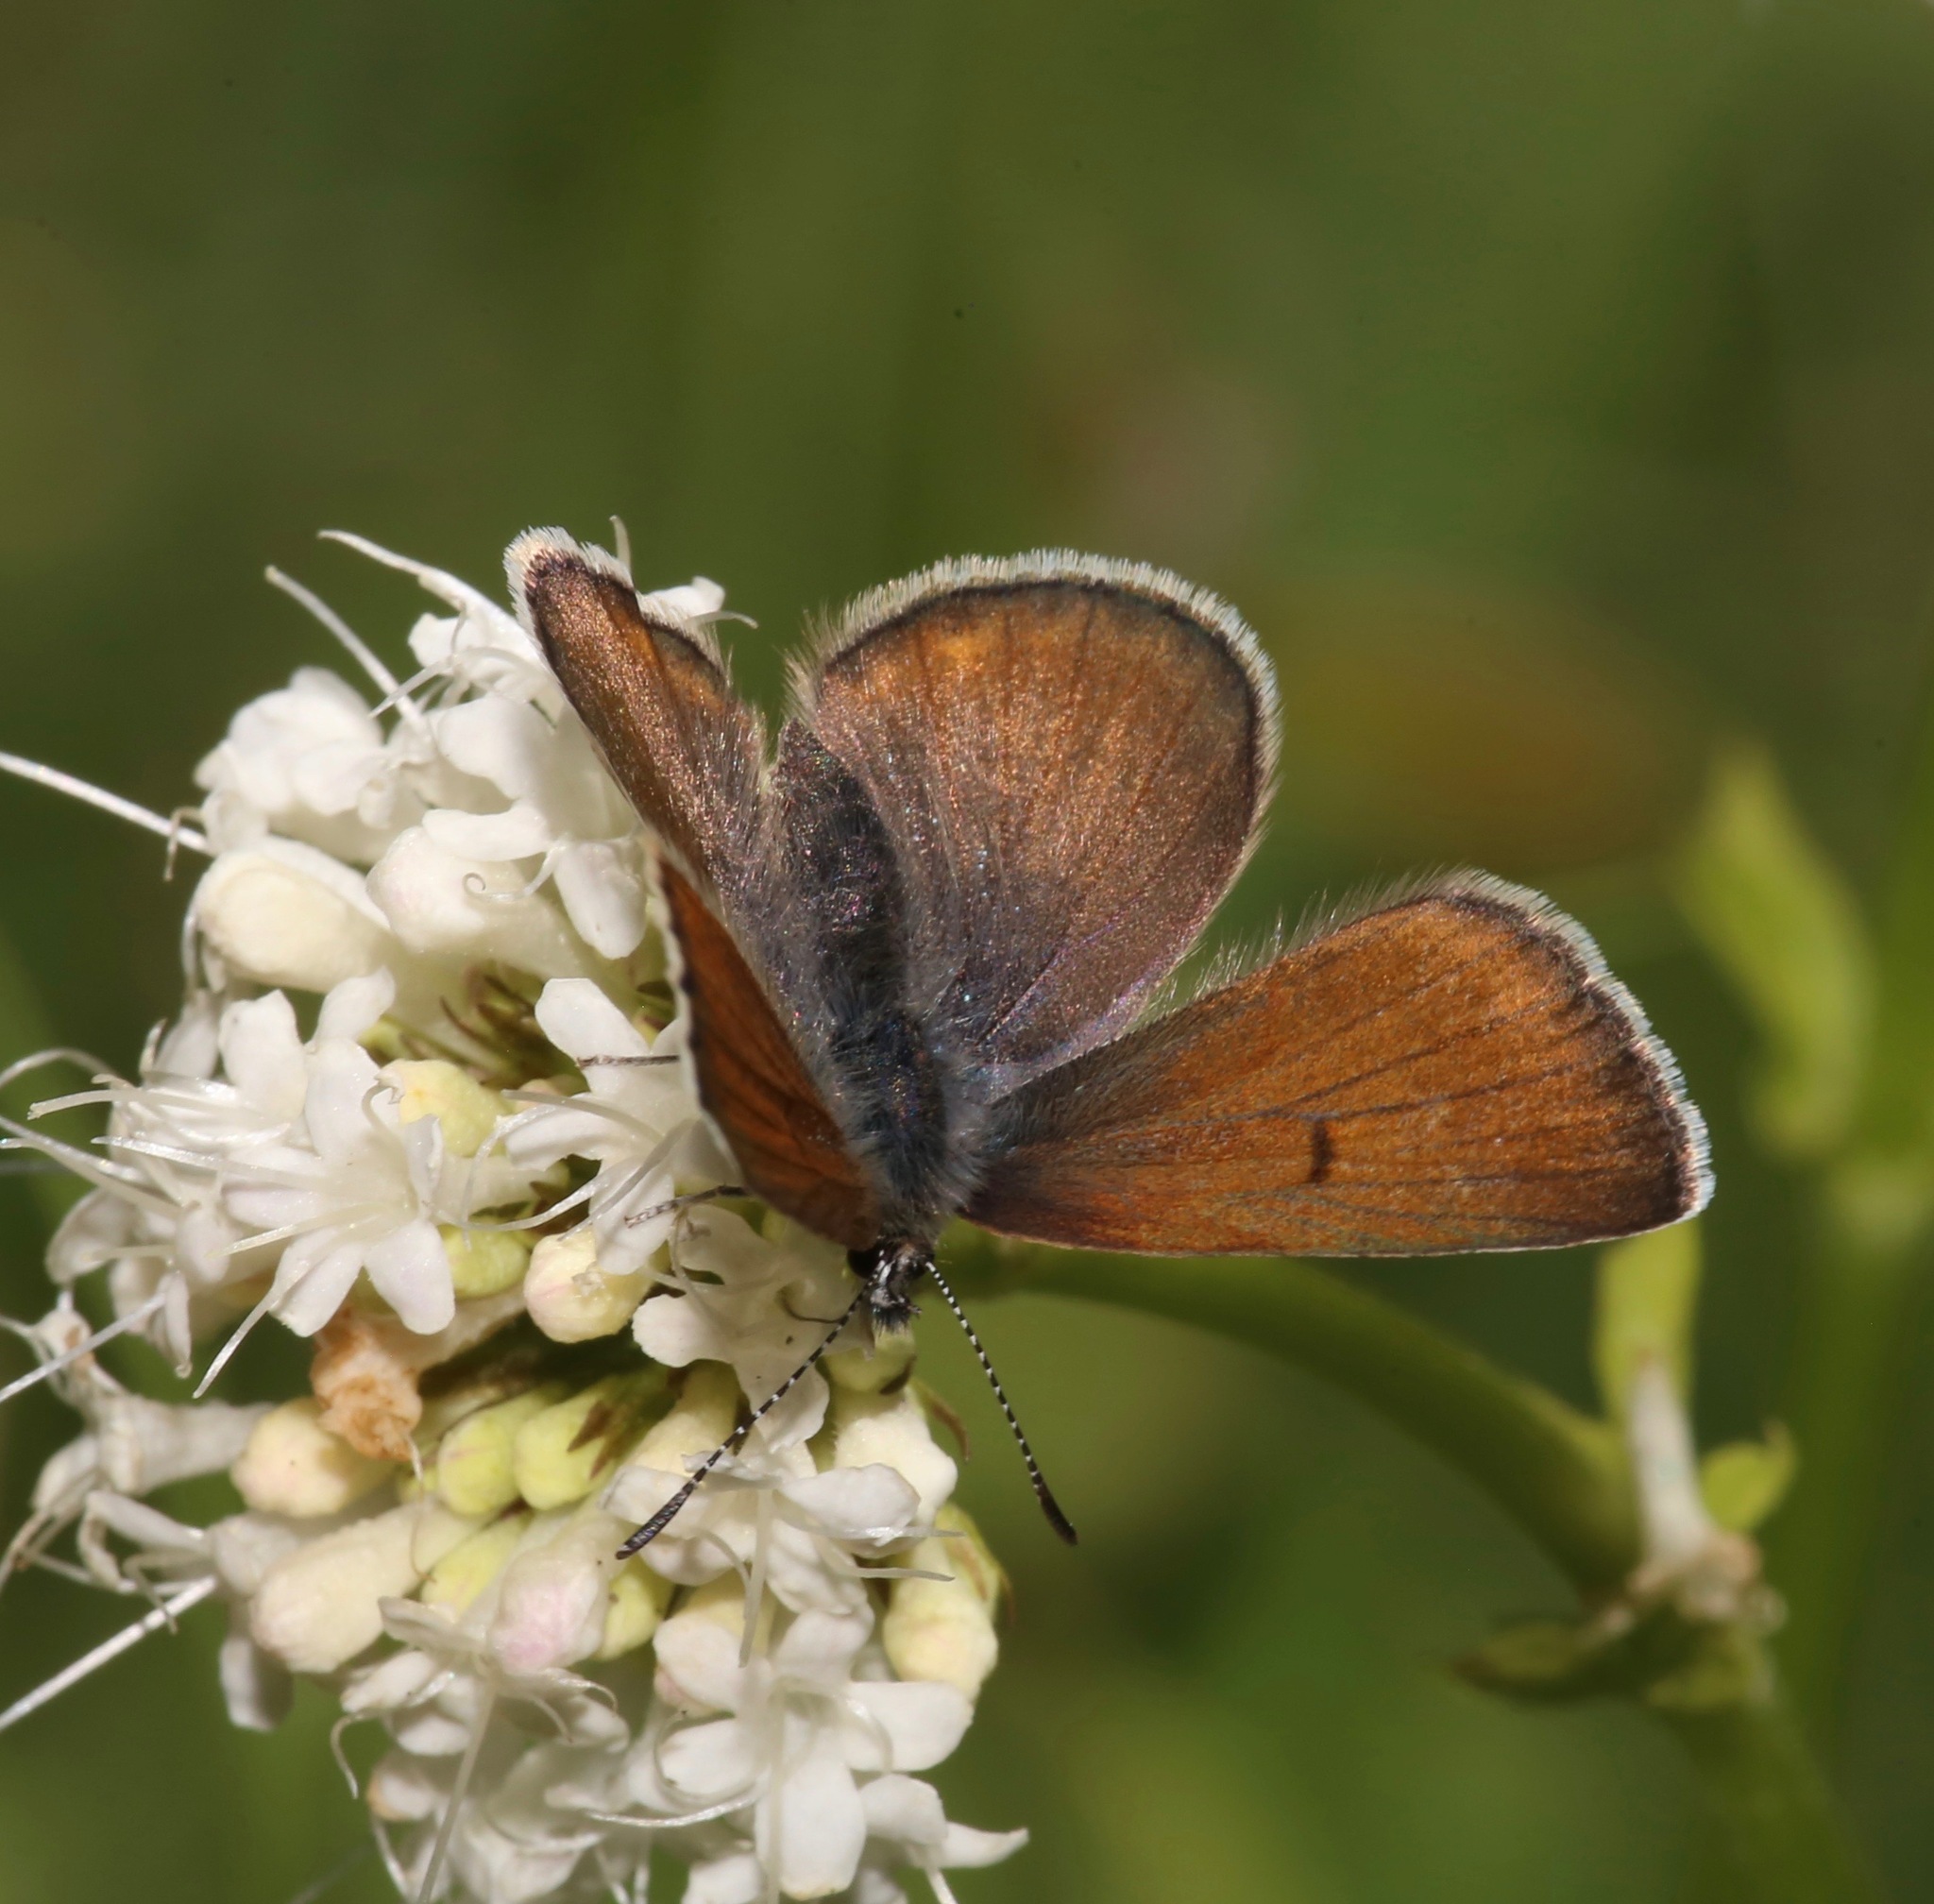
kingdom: Animalia
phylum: Arthropoda
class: Insecta
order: Lepidoptera
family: Lycaenidae
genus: Icaricia
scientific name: Icaricia saepiolus
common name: Greenish blue
